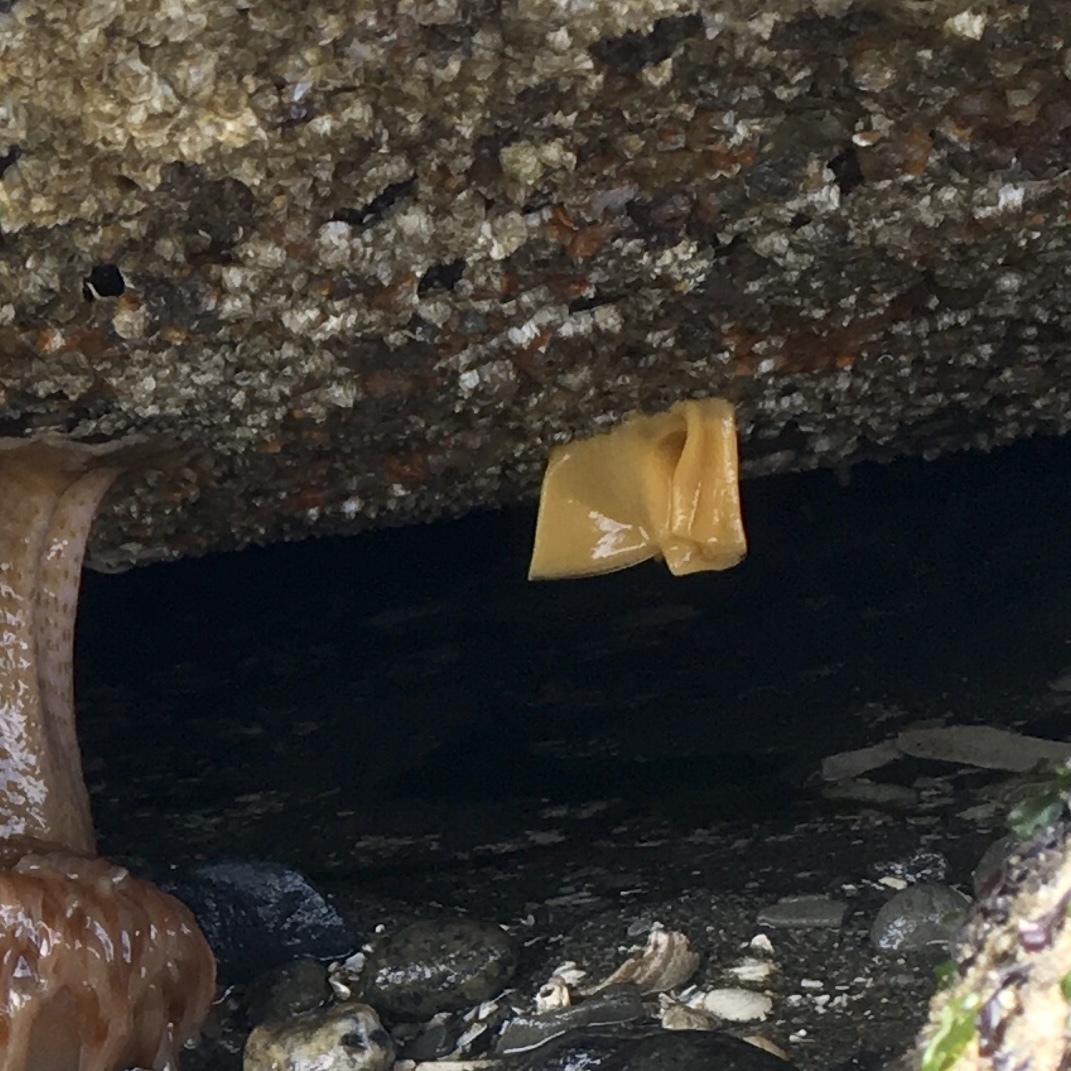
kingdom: Animalia
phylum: Mollusca
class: Gastropoda
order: Nudibranchia
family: Dorididae
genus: Doris
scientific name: Doris montereyensis
